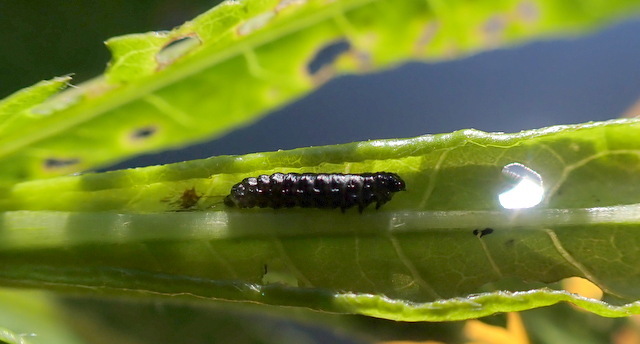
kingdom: Animalia
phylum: Arthropoda
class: Insecta
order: Coleoptera
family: Chrysomelidae
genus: Agasicles
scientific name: Agasicles hygrophila
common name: Alligatorweed flea beetle
